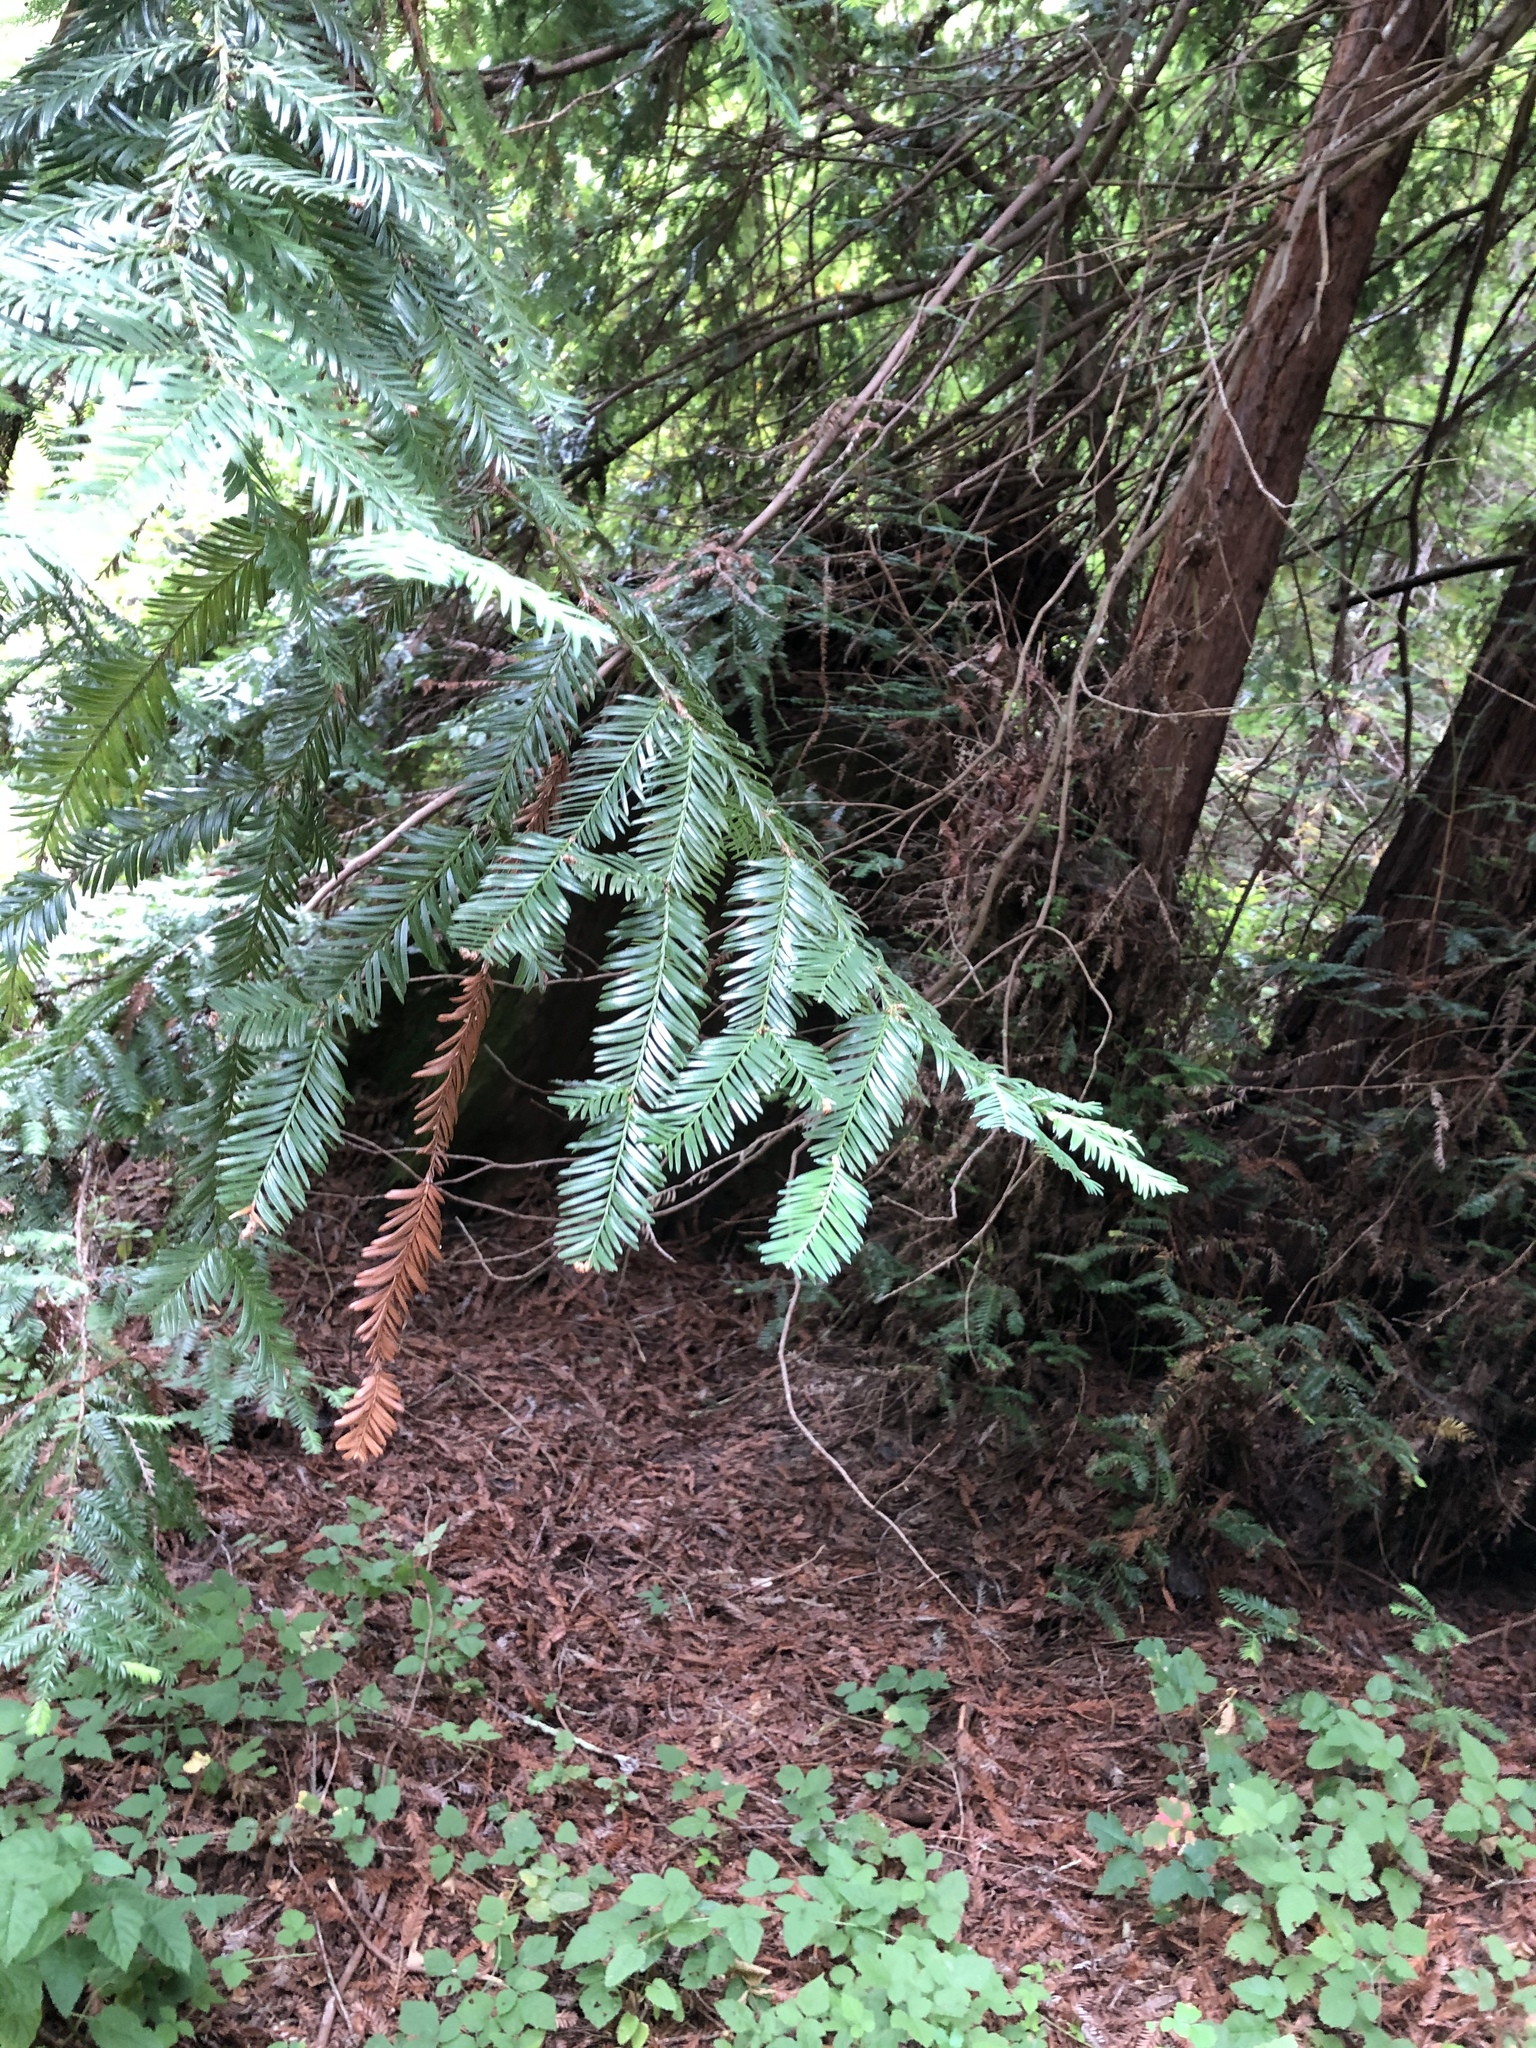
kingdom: Plantae
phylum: Tracheophyta
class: Pinopsida
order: Pinales
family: Cupressaceae
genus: Sequoia
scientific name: Sequoia sempervirens
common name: Coast redwood
